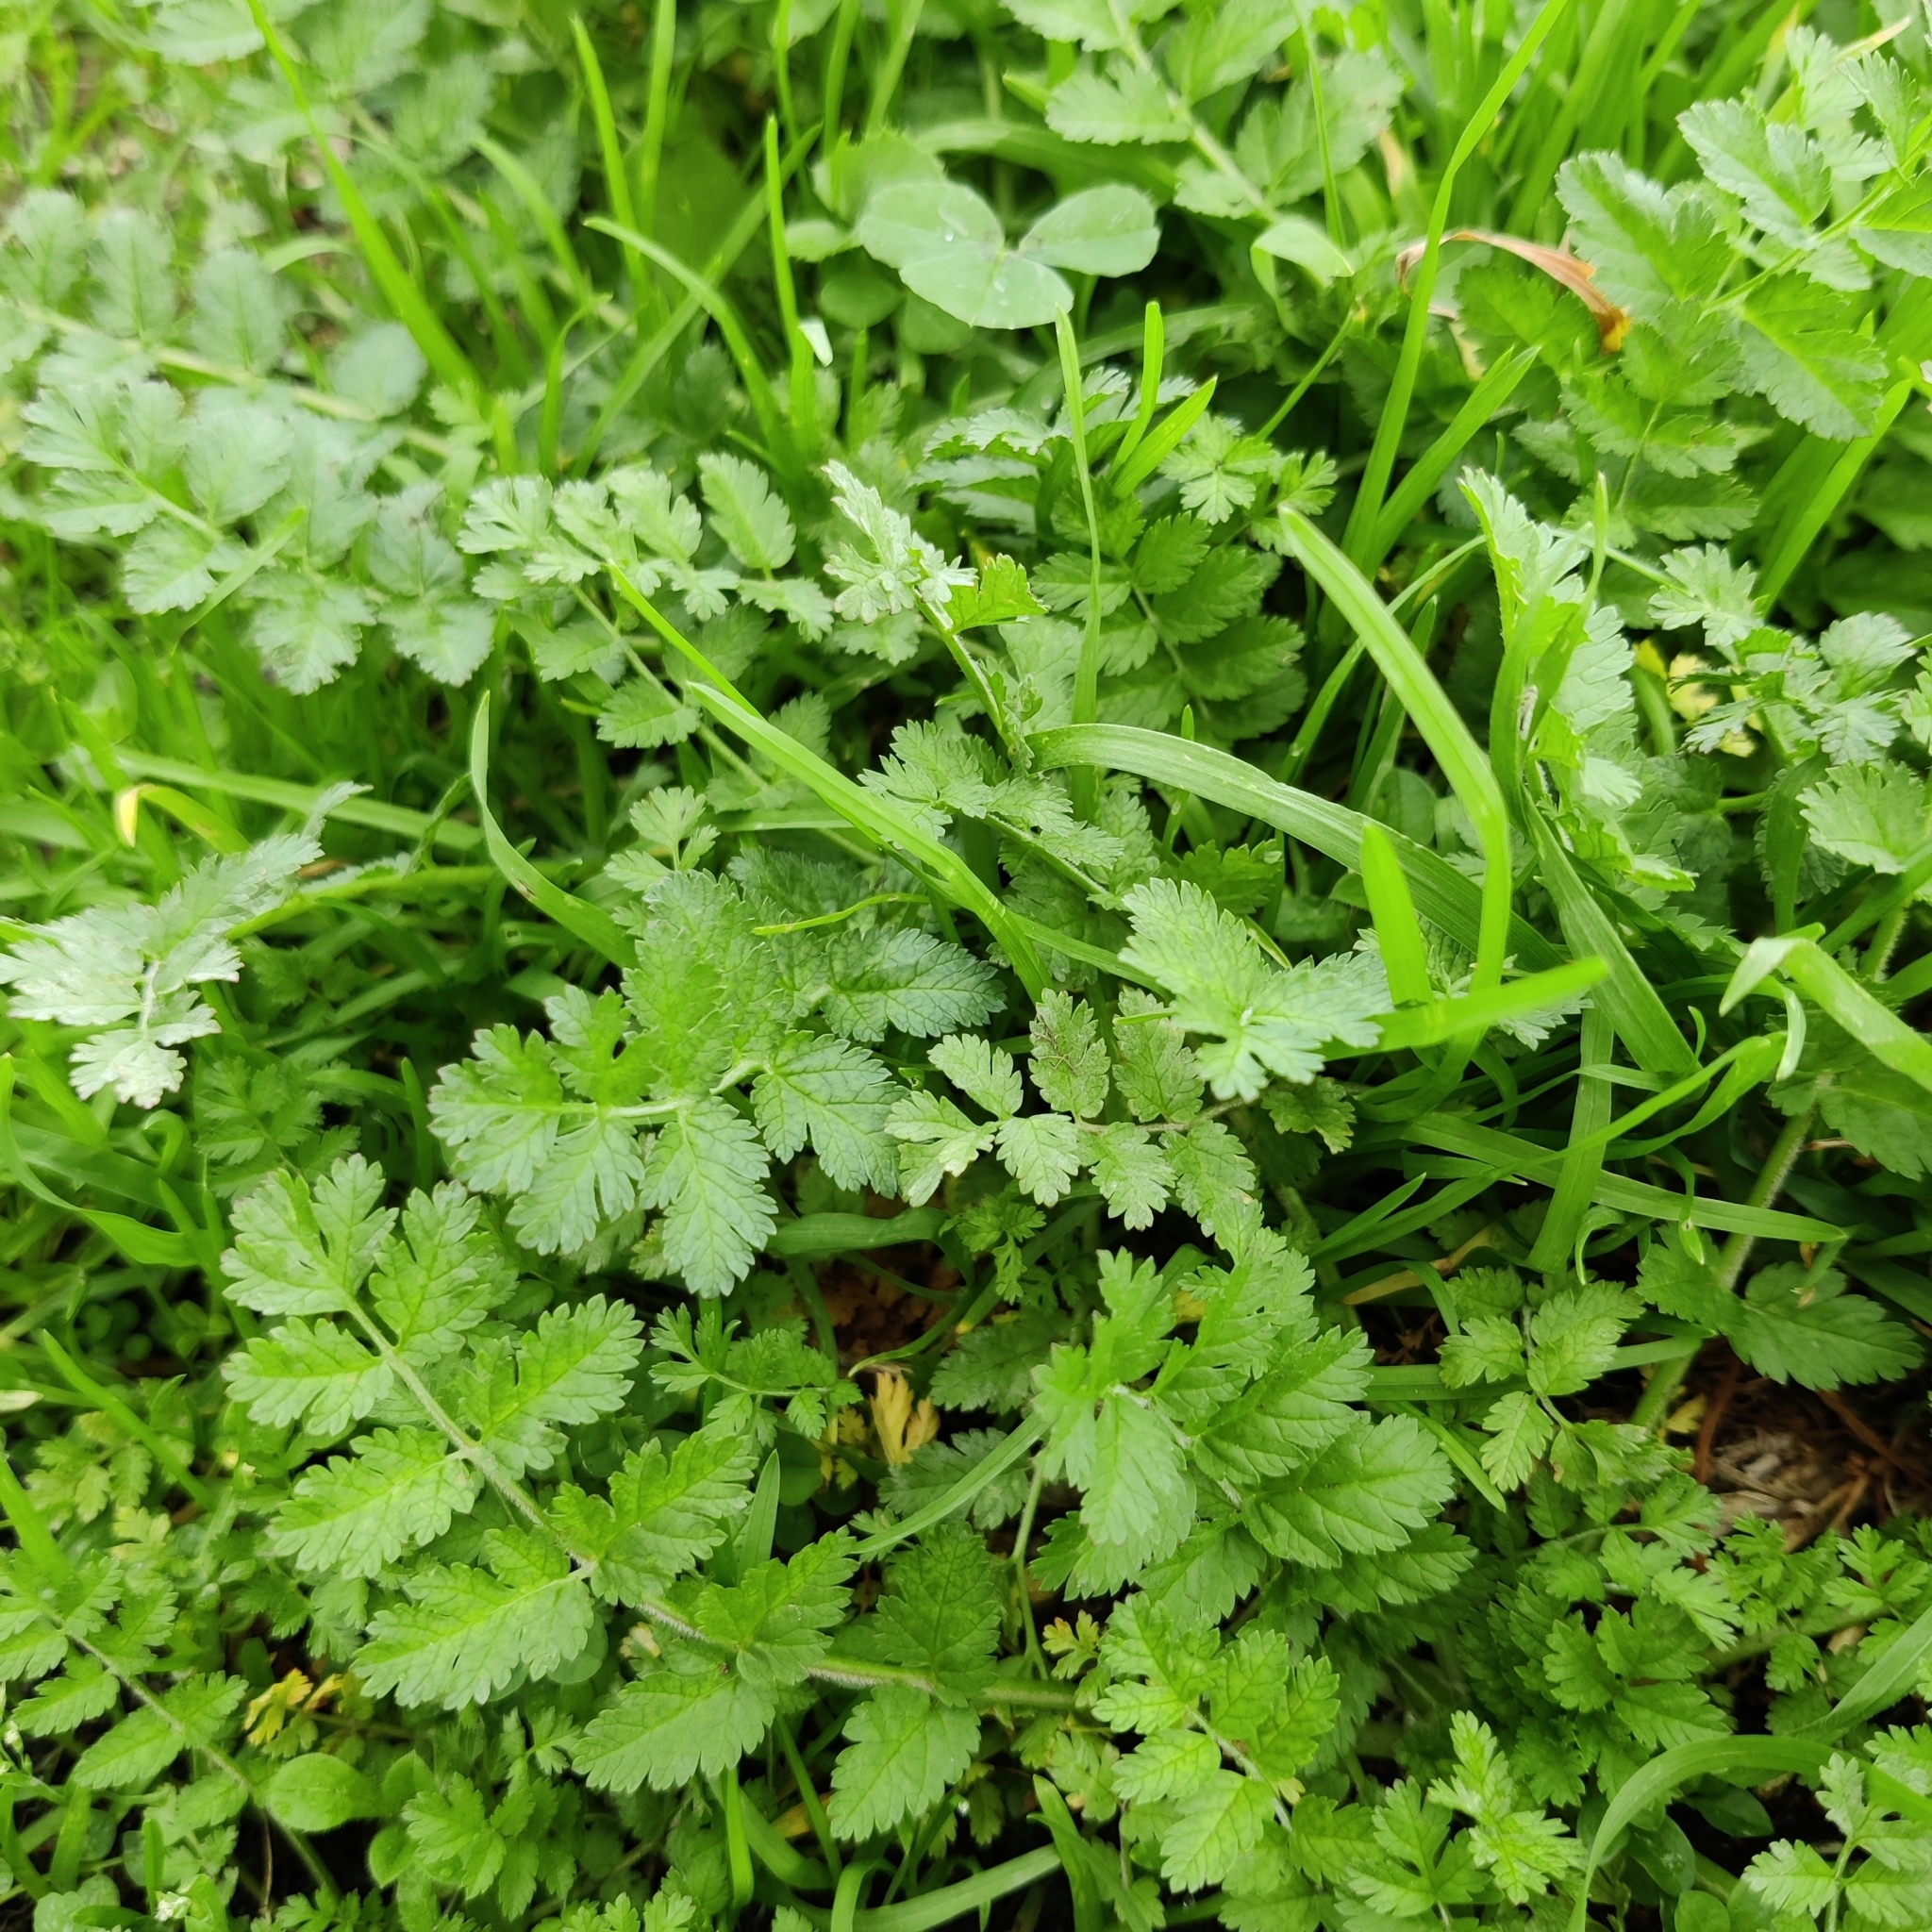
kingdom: Plantae
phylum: Tracheophyta
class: Magnoliopsida
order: Geraniales
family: Geraniaceae
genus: Erodium
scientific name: Erodium moschatum
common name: Musk stork's-bill
